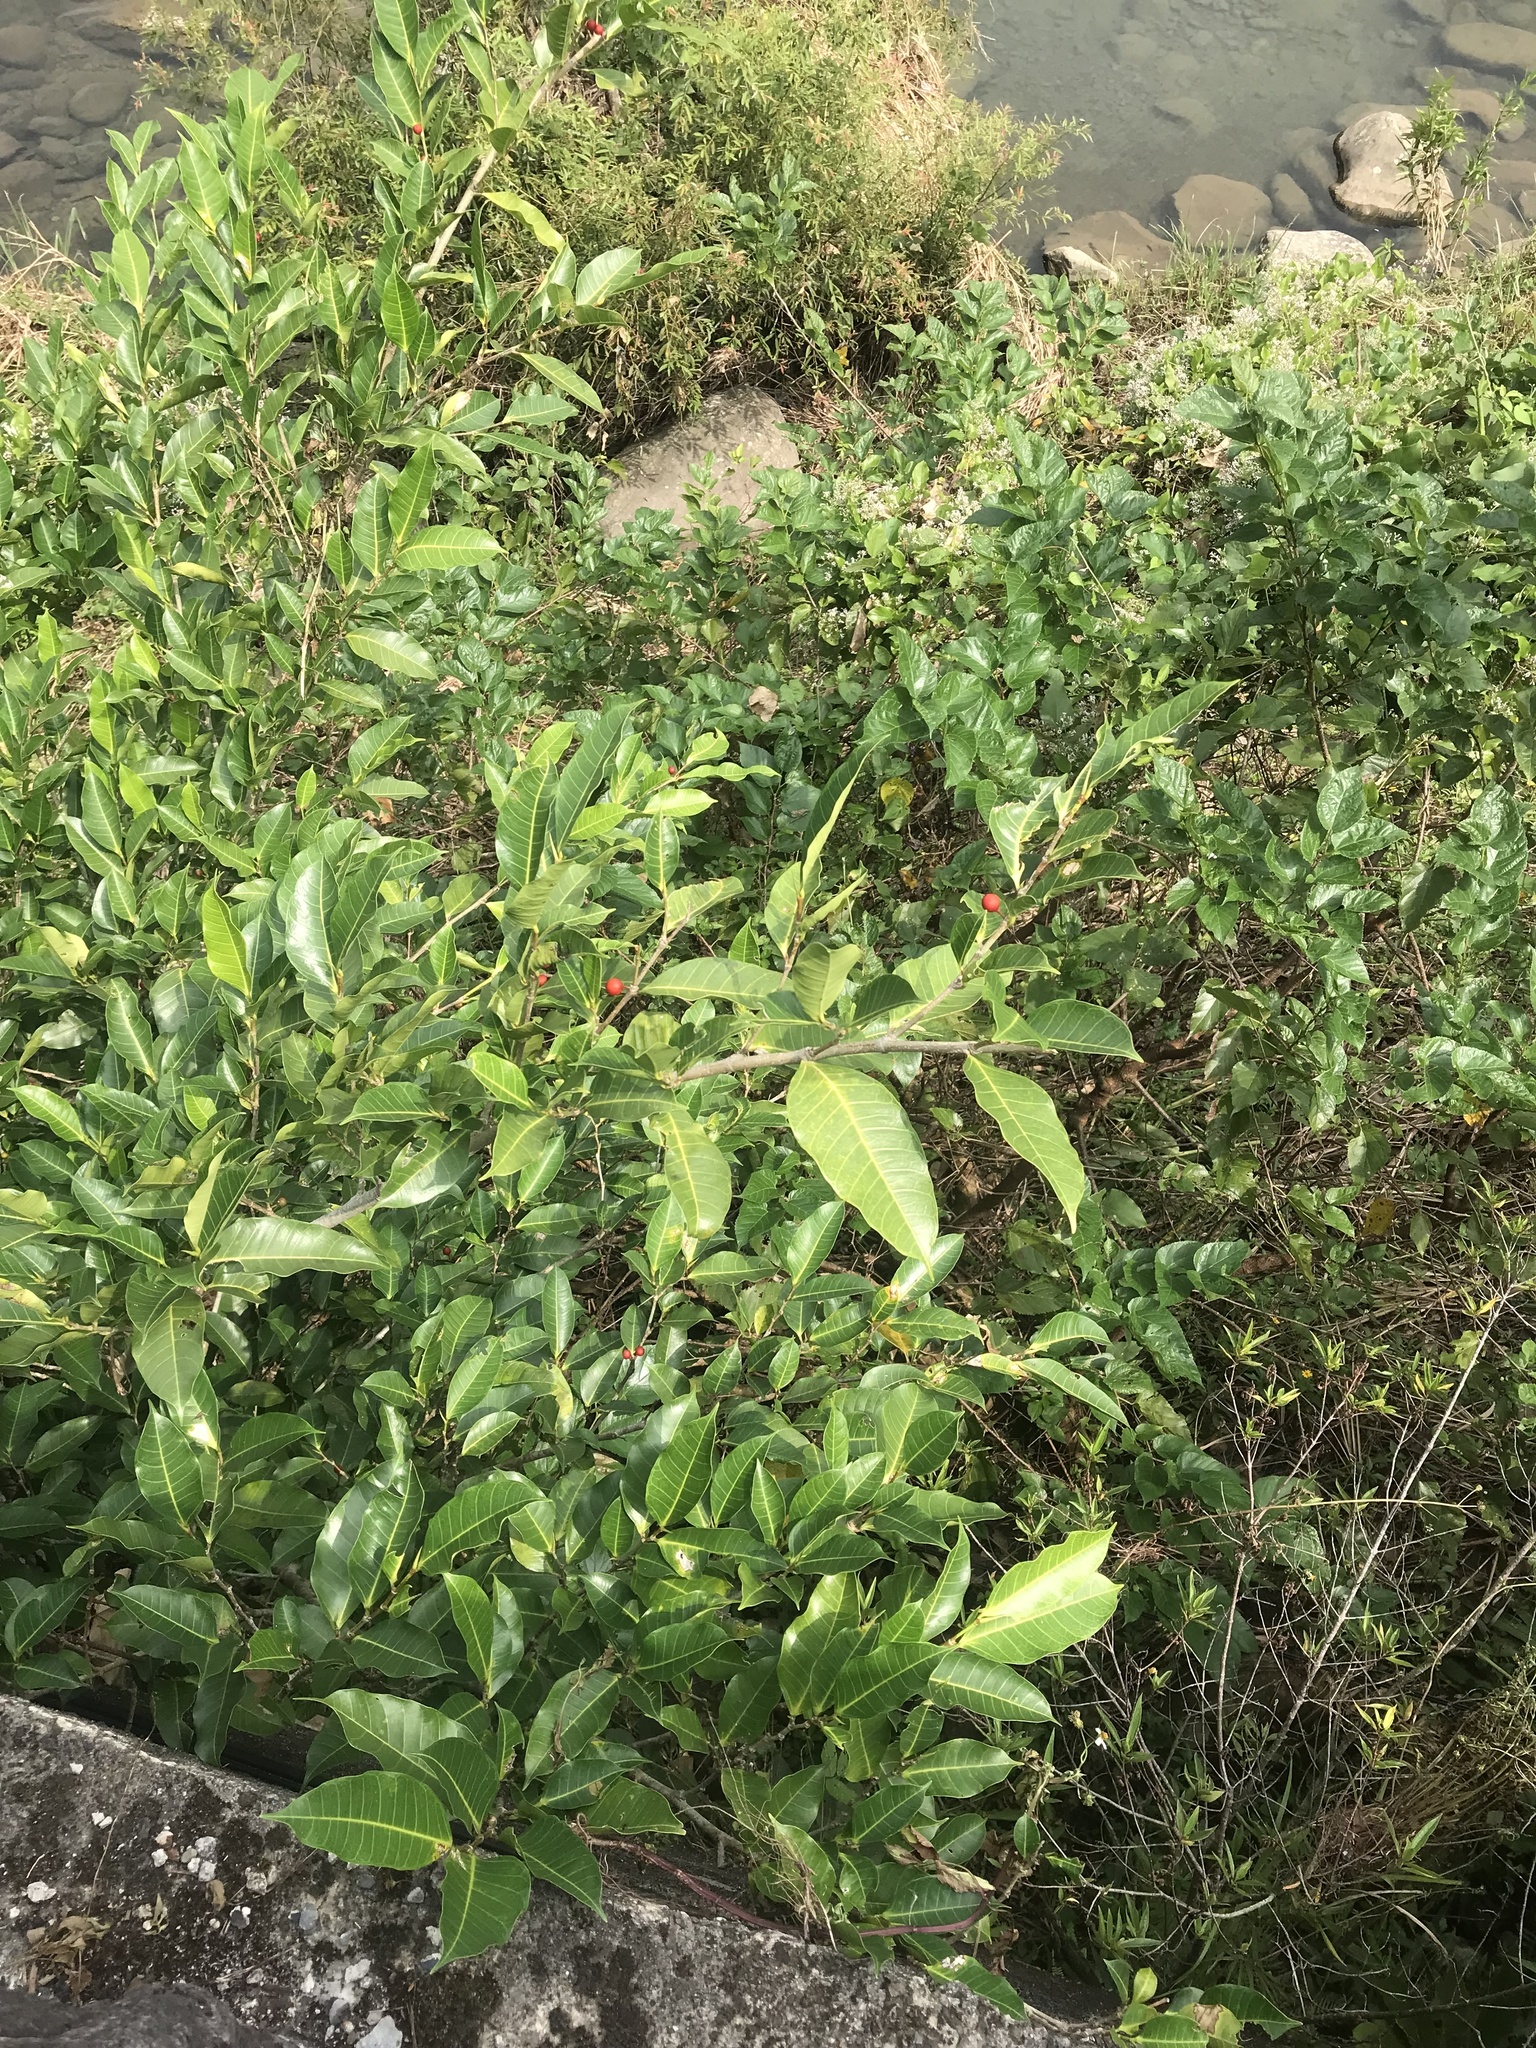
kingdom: Plantae
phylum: Tracheophyta
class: Magnoliopsida
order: Rosales
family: Moraceae
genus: Ficus
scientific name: Ficus virgata
